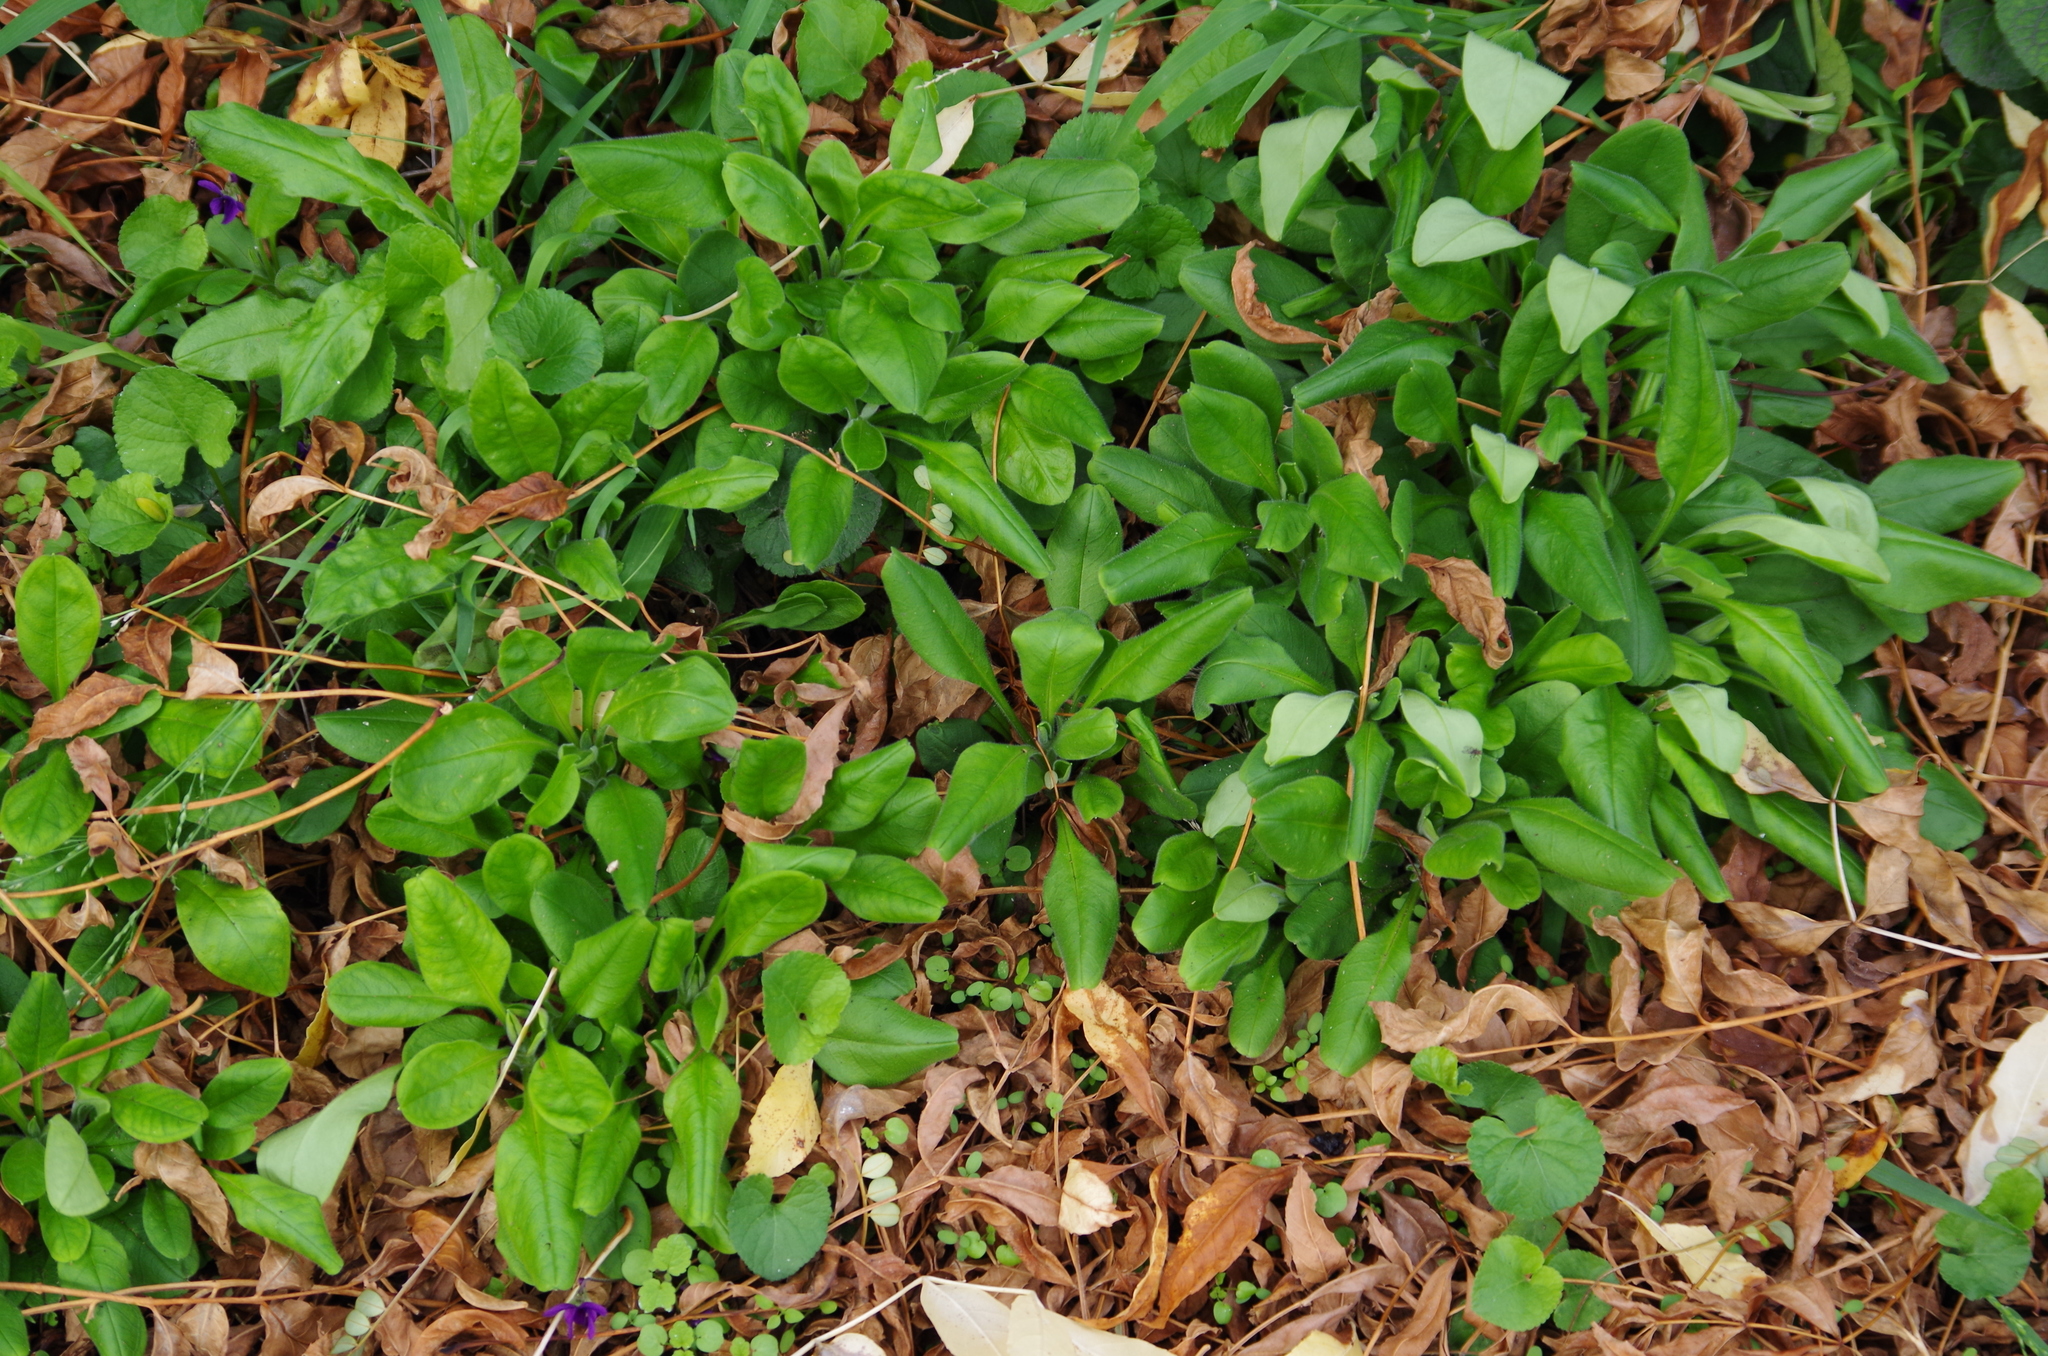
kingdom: Plantae
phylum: Tracheophyta
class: Magnoliopsida
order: Boraginales
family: Boraginaceae
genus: Myosotis
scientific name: Myosotis sylvatica
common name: Wood forget-me-not
